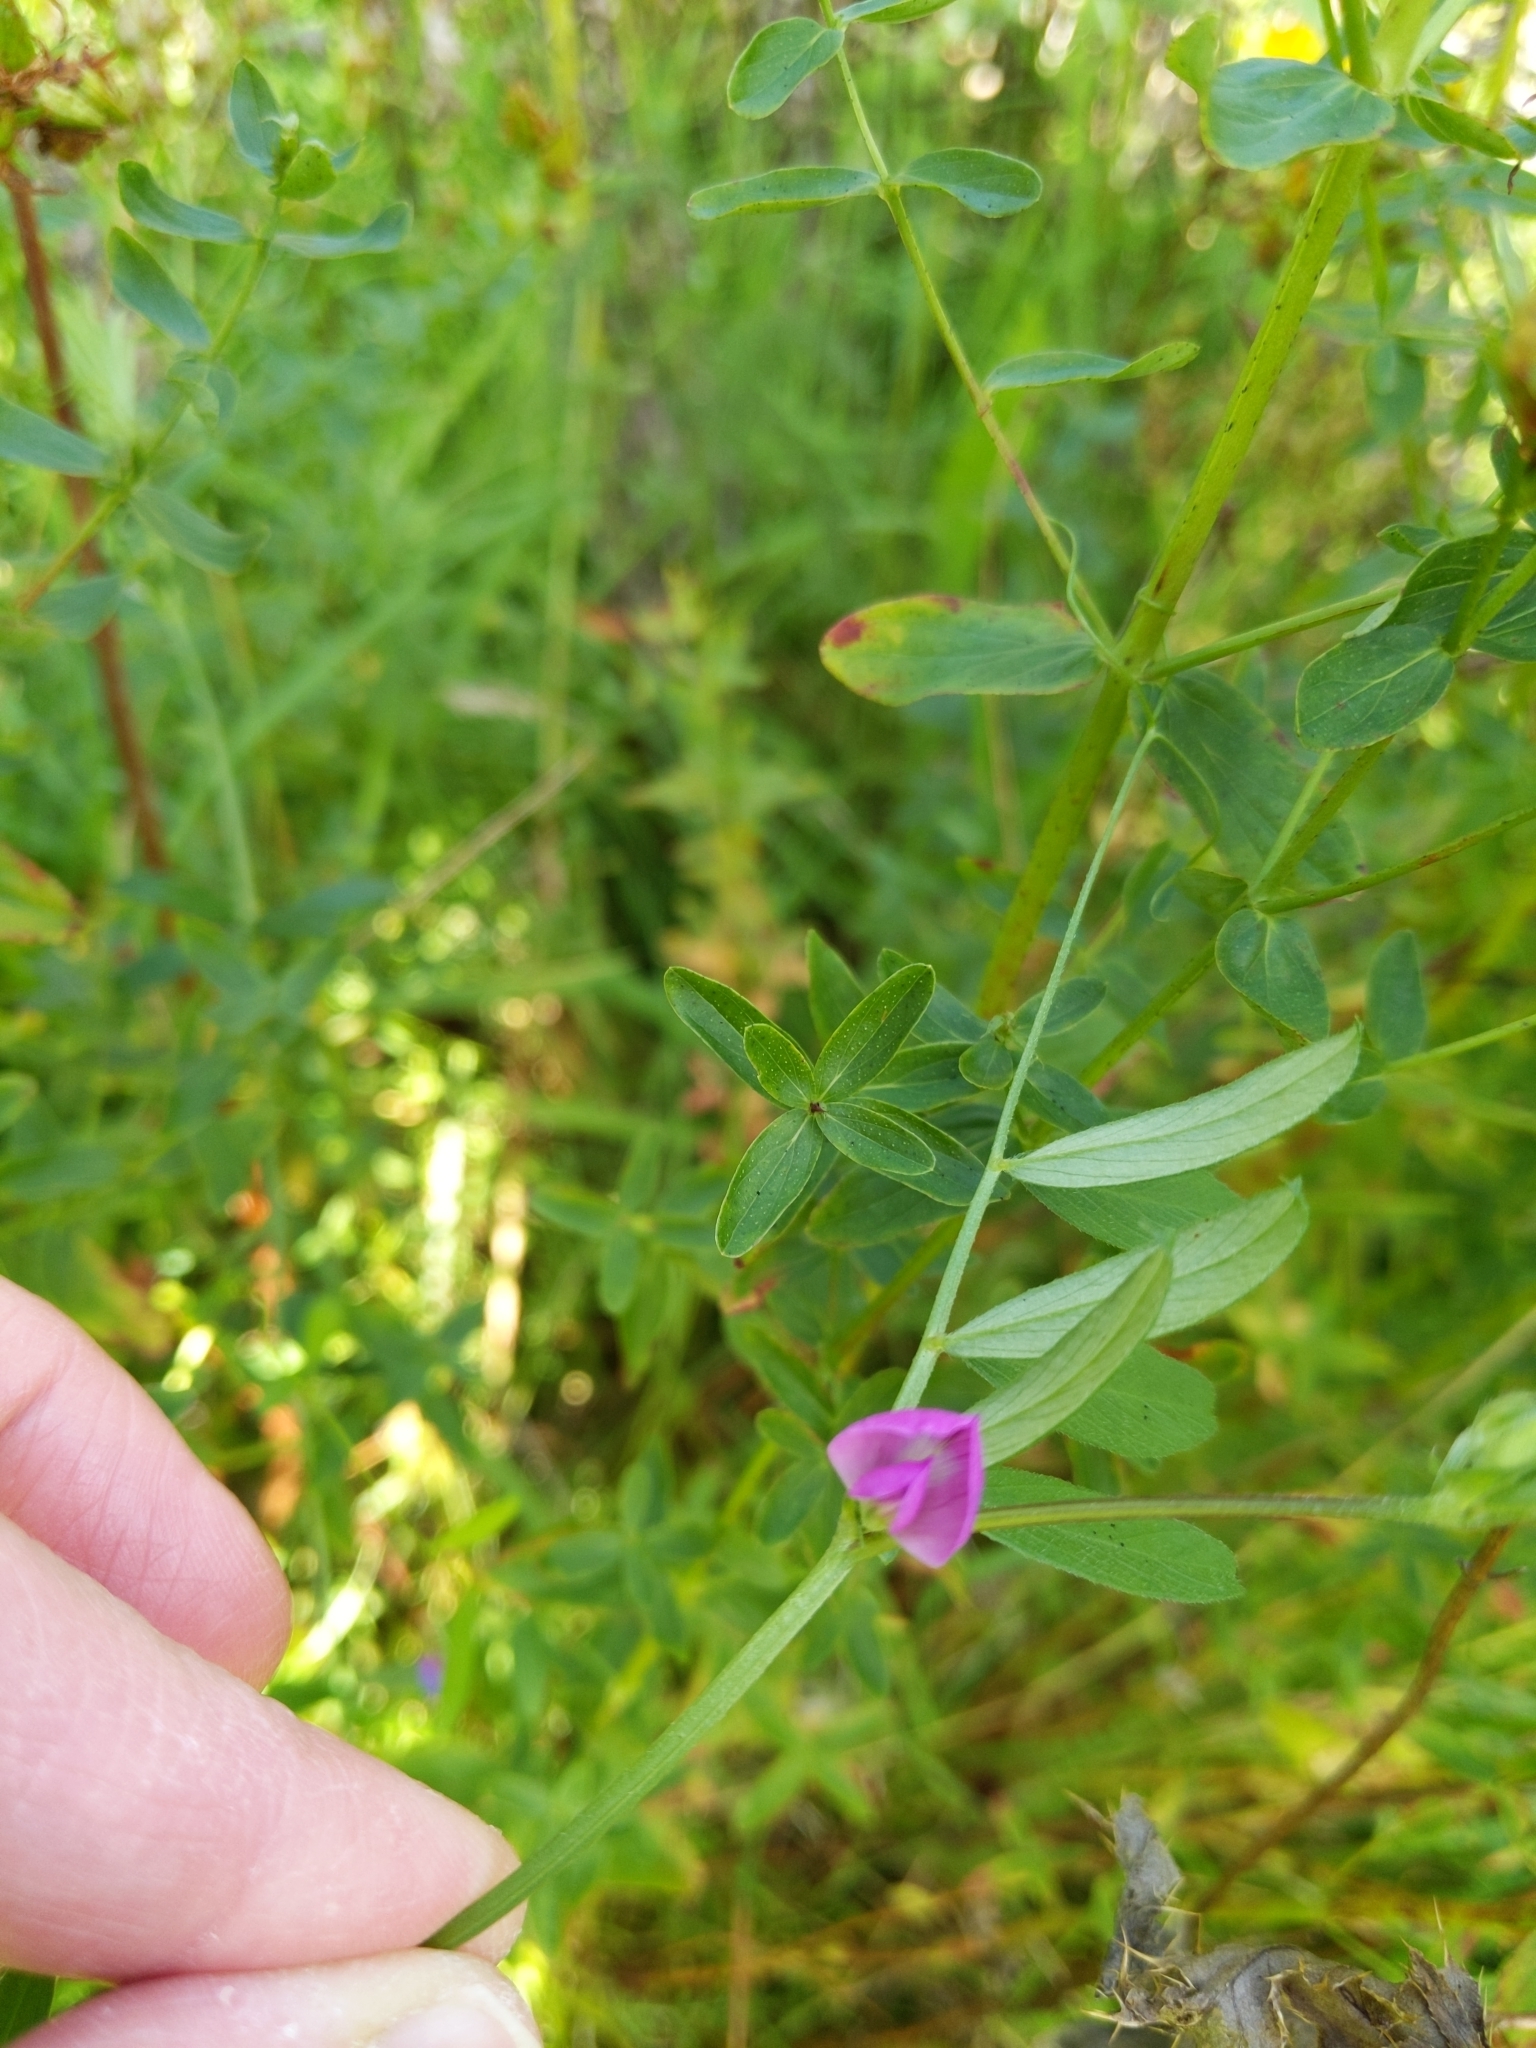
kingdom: Plantae
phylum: Tracheophyta
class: Magnoliopsida
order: Fabales
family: Fabaceae
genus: Vicia
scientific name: Vicia sativa
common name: Garden vetch
